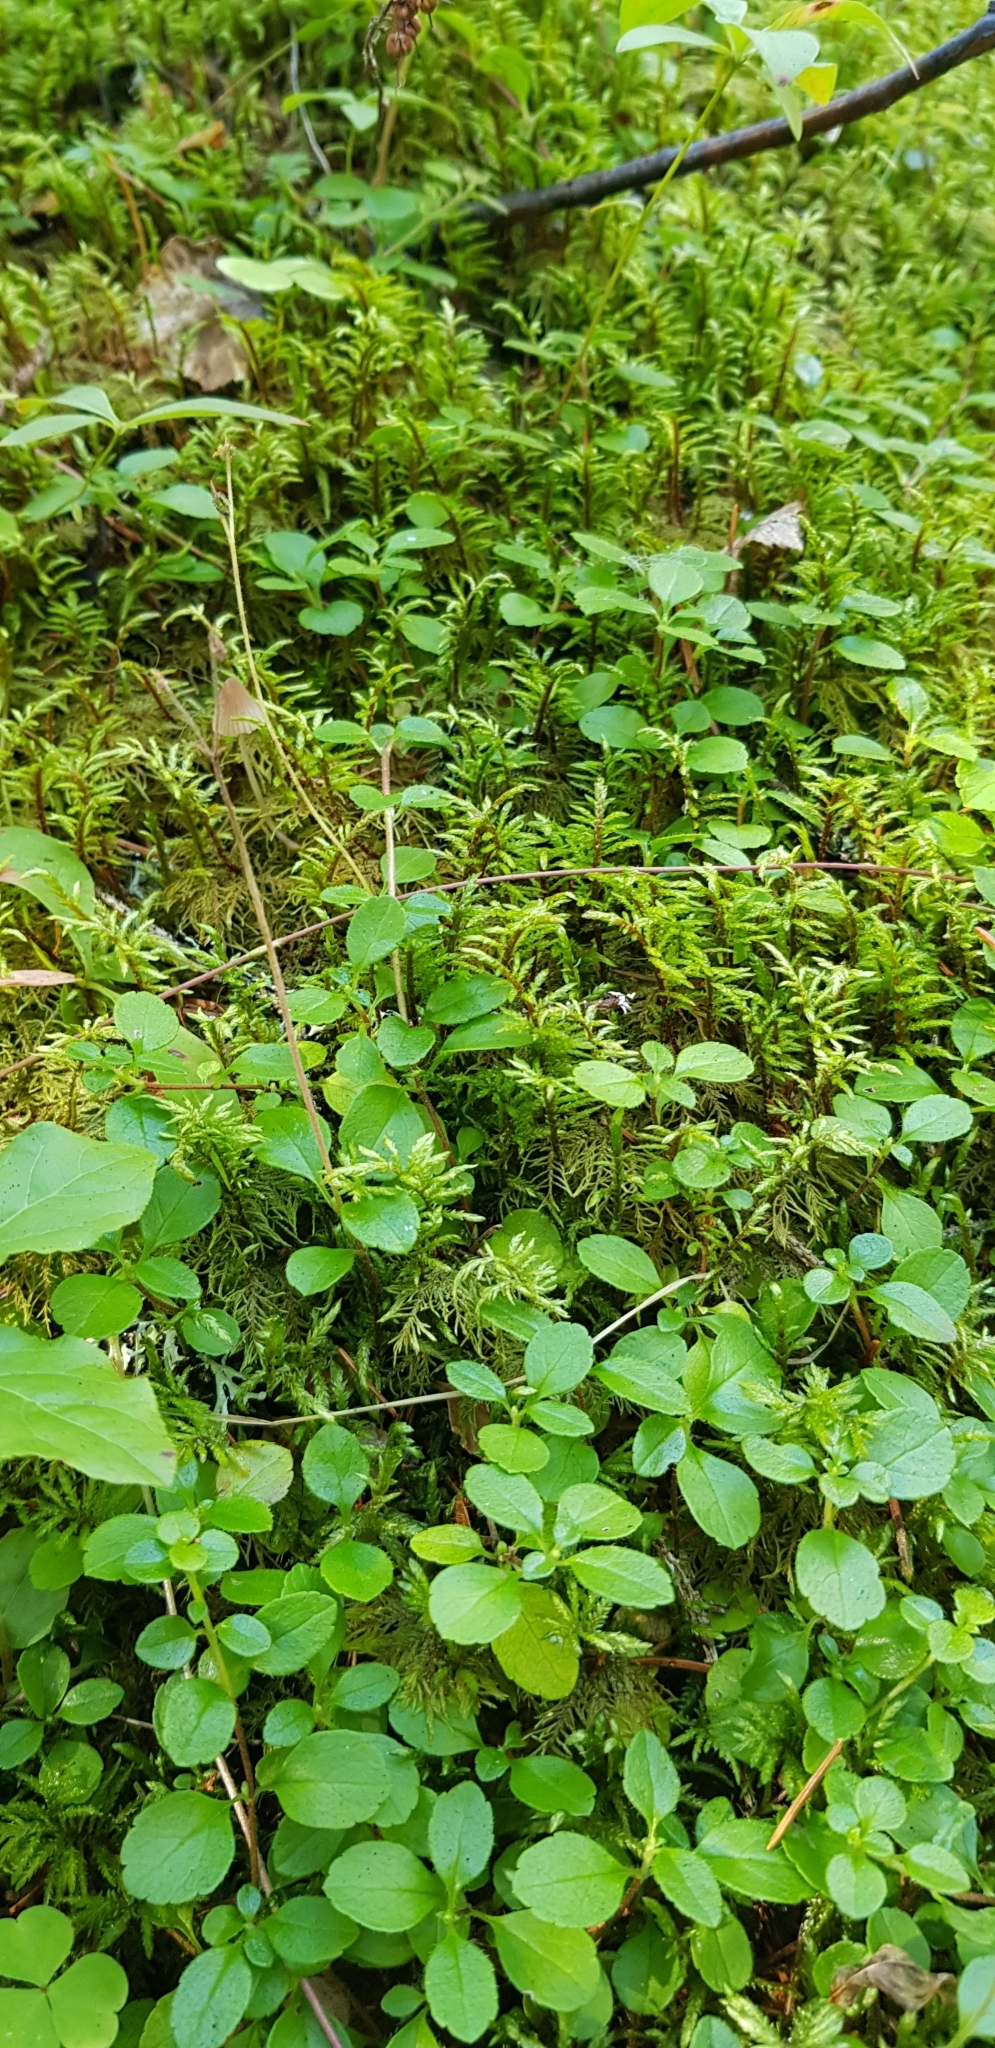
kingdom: Plantae
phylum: Tracheophyta
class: Magnoliopsida
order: Dipsacales
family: Caprifoliaceae
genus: Linnaea
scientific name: Linnaea borealis
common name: Twinflower
